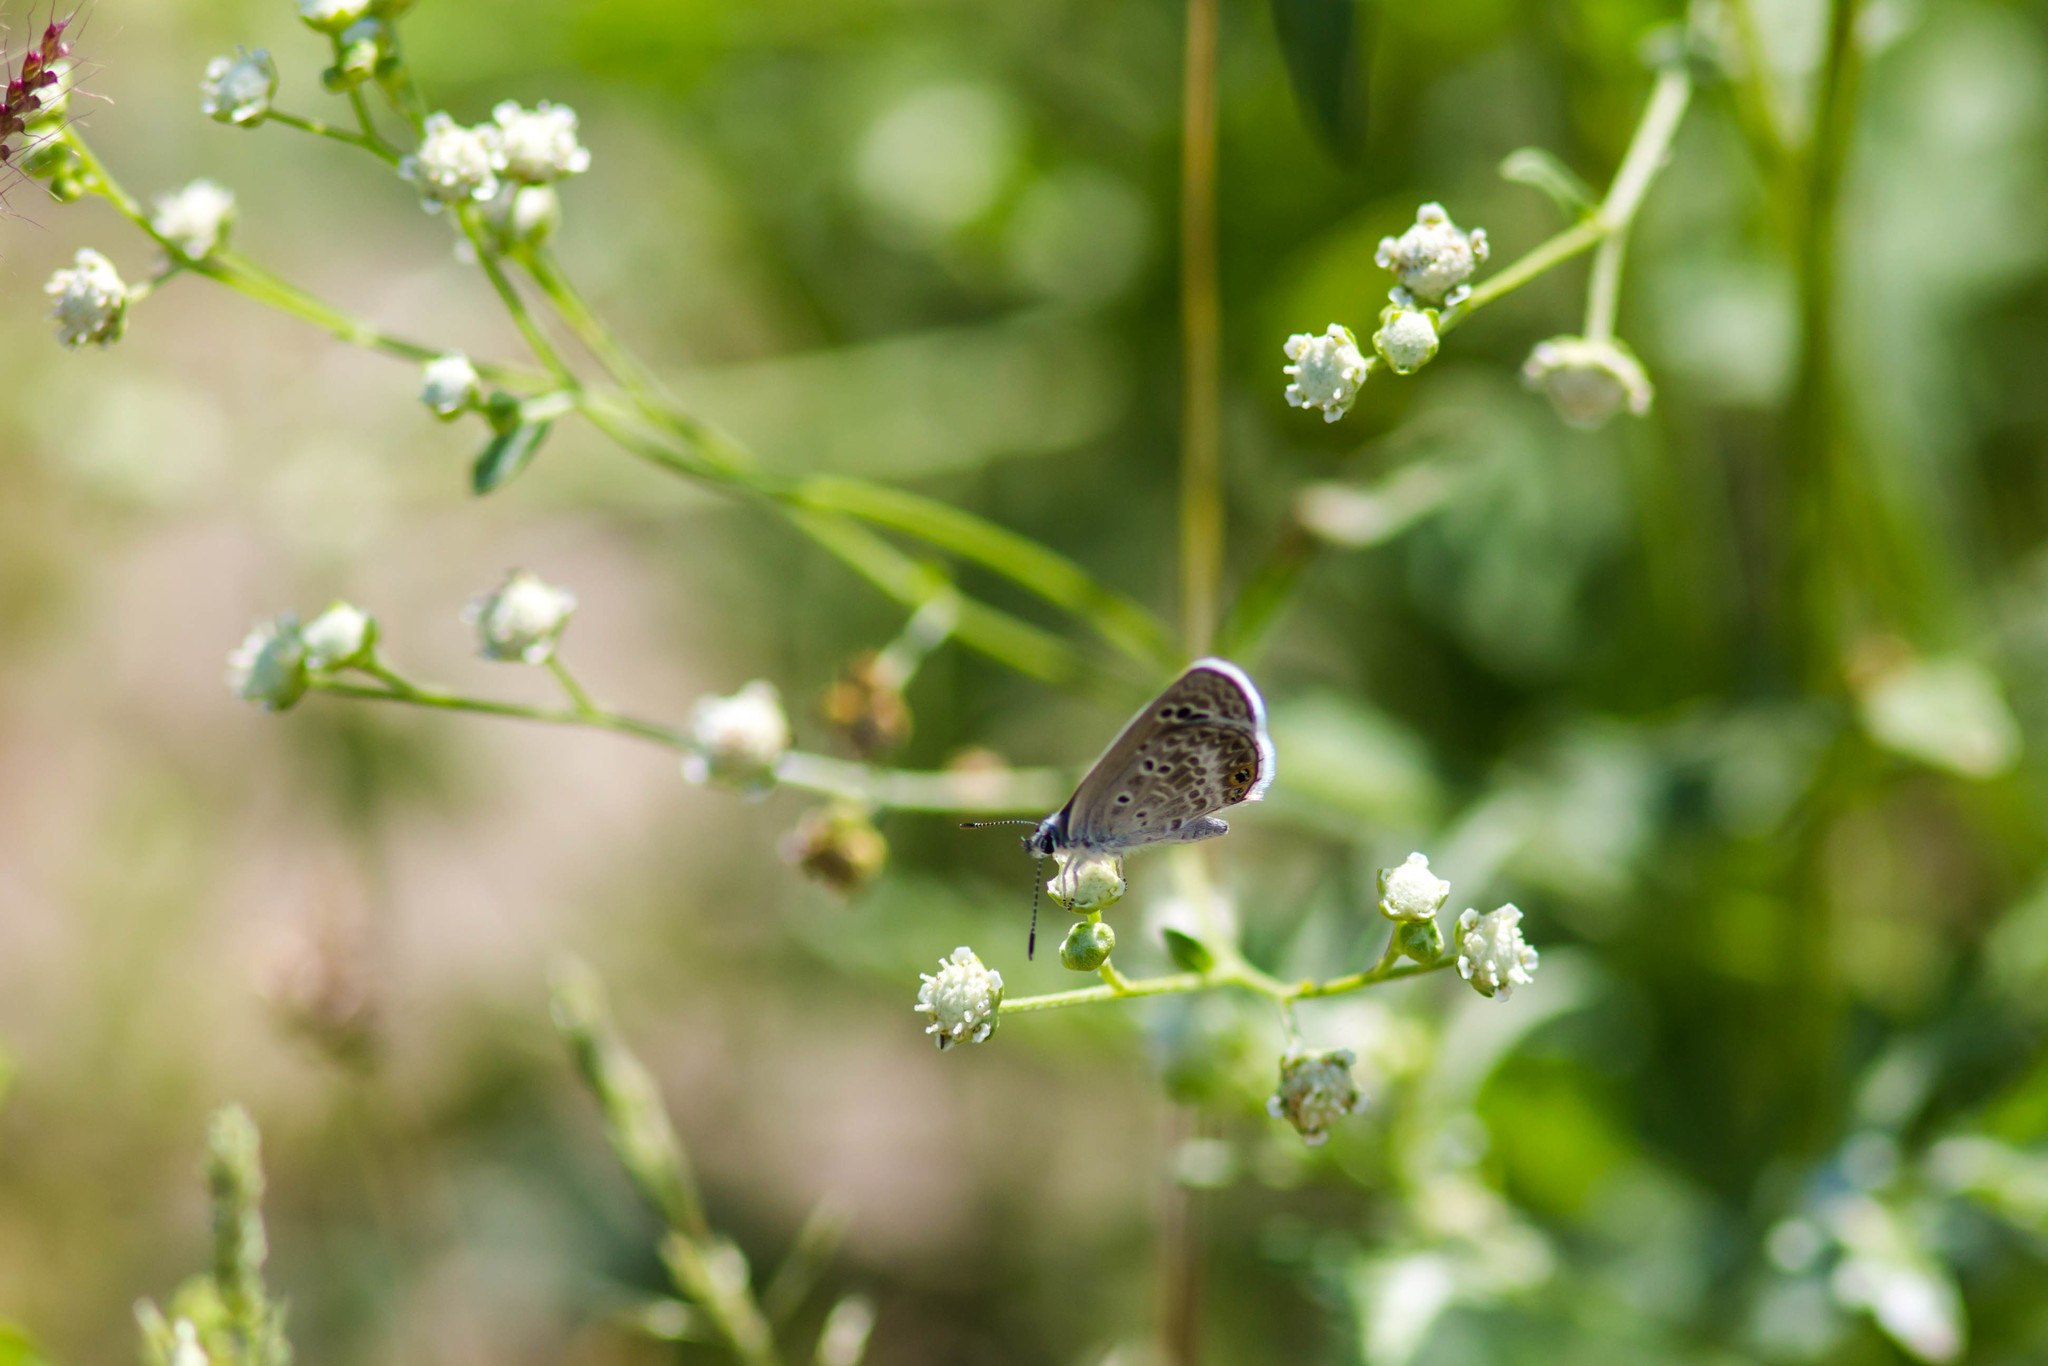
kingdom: Animalia
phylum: Arthropoda
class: Insecta
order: Lepidoptera
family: Lycaenidae
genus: Echinargus
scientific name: Echinargus isola
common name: Reakirt's blue
